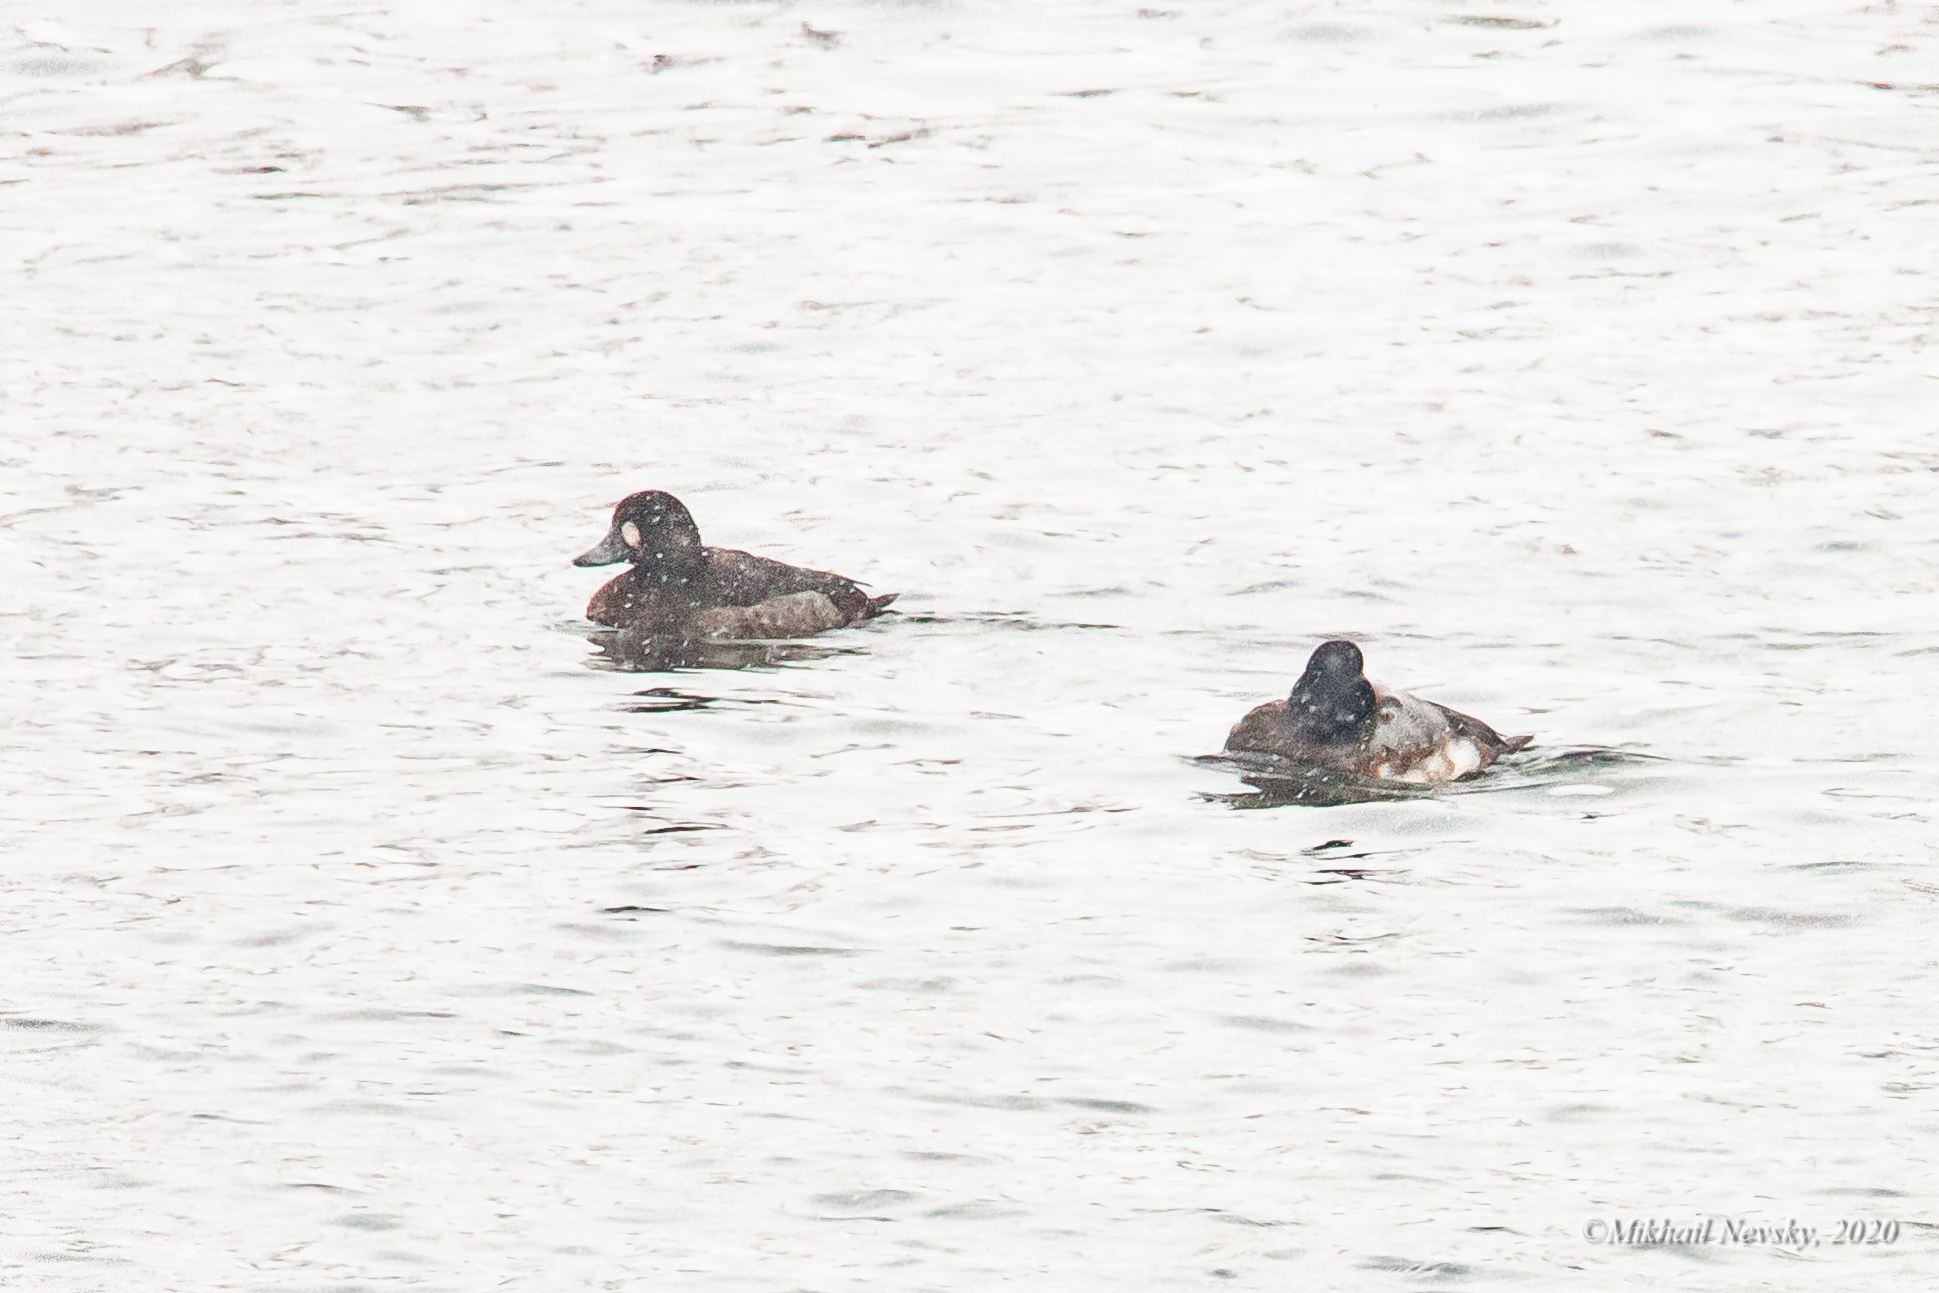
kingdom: Animalia
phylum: Chordata
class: Aves
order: Anseriformes
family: Anatidae
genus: Aythya
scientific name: Aythya marila
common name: Greater scaup
